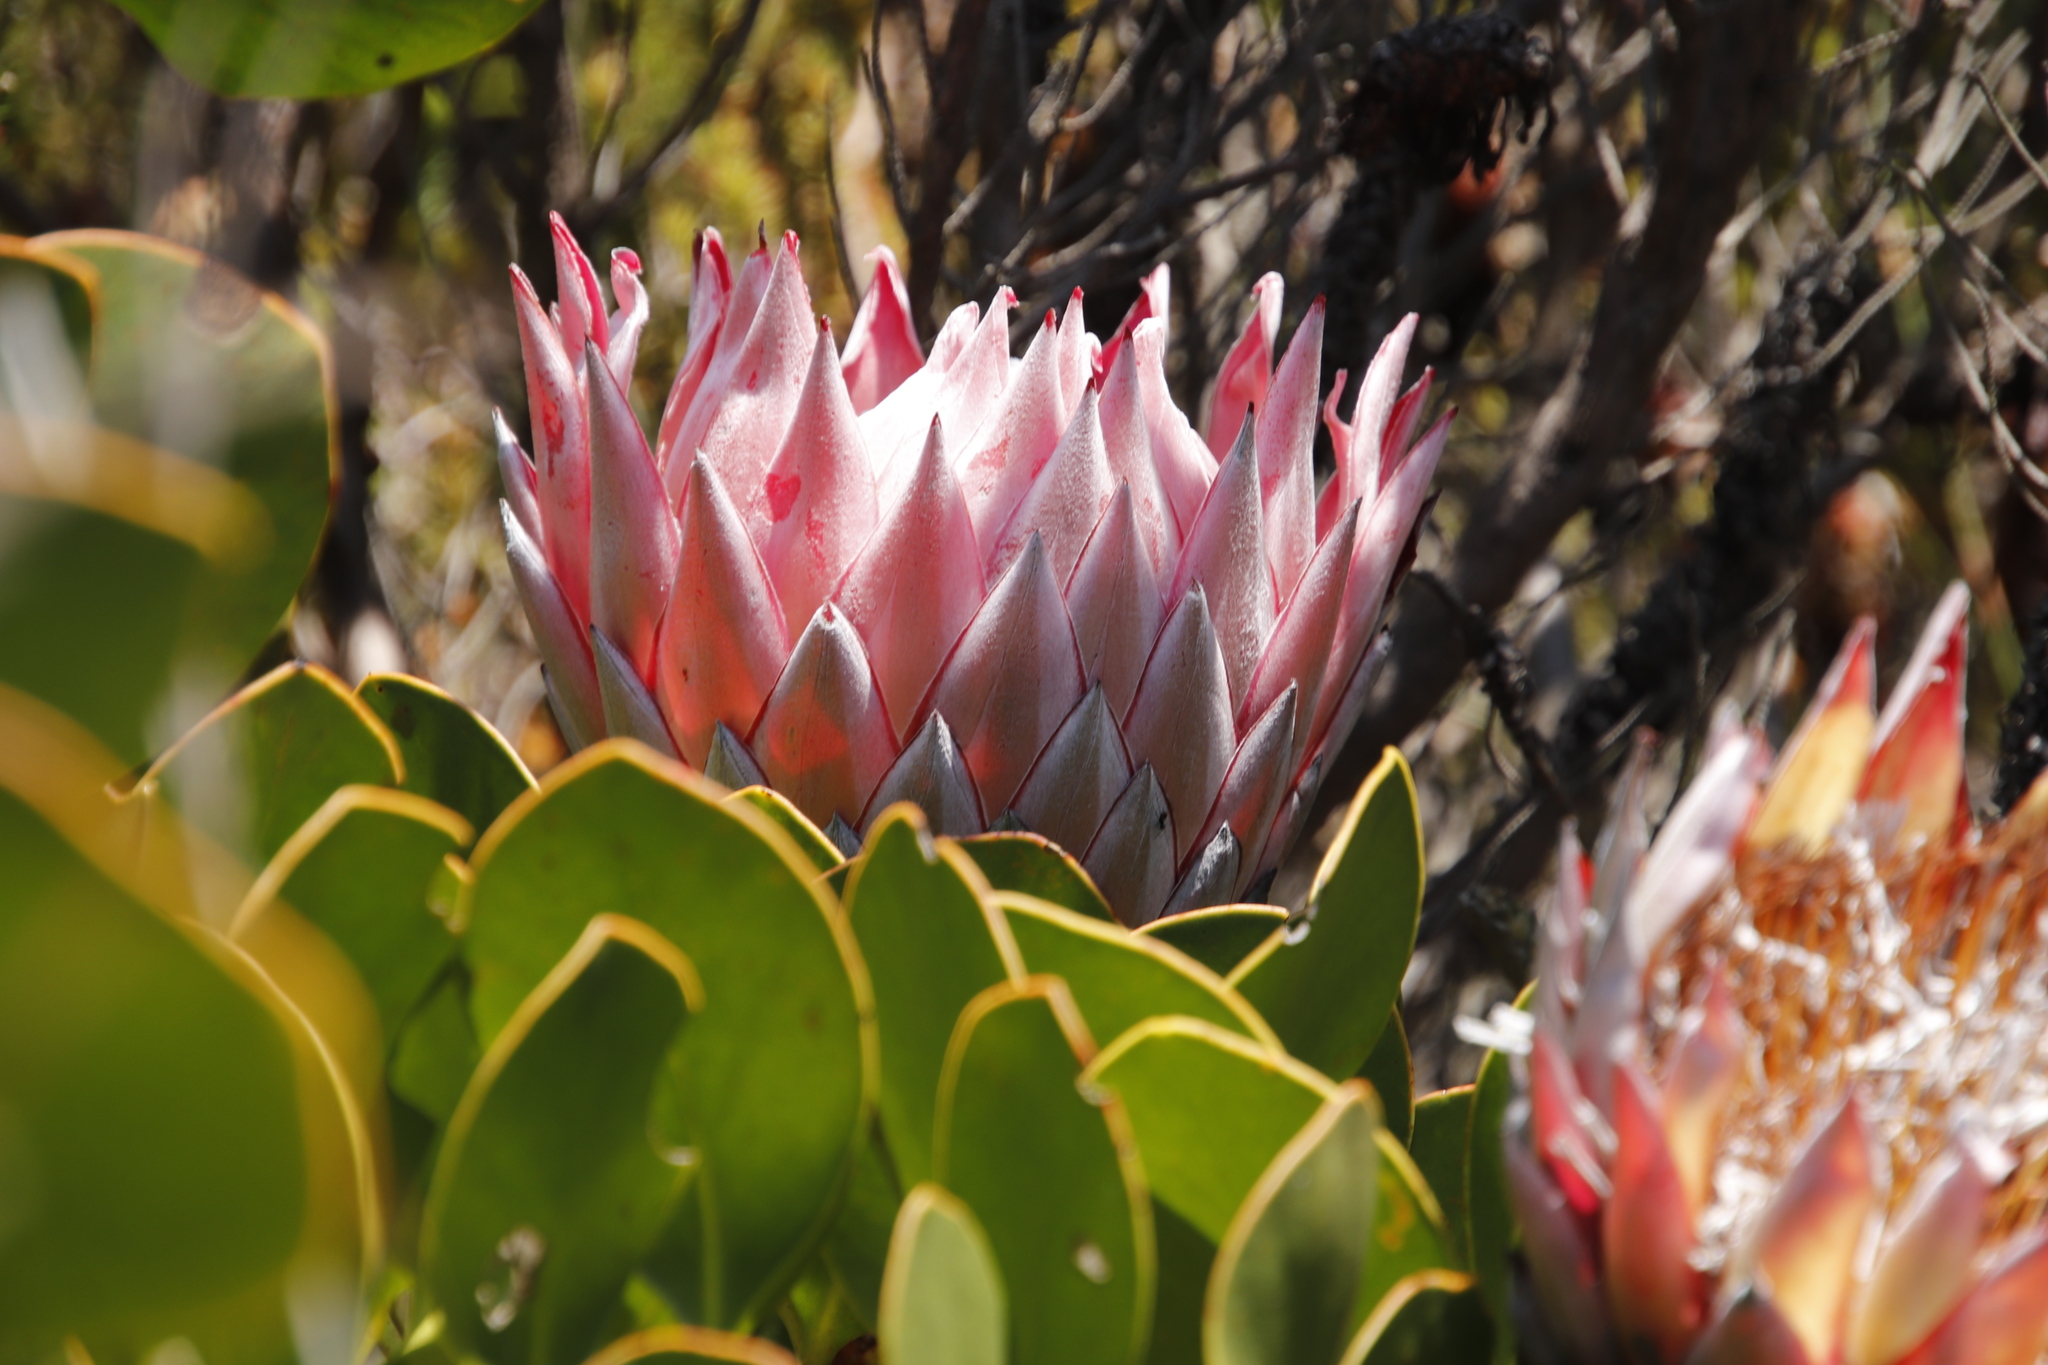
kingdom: Plantae
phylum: Tracheophyta
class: Magnoliopsida
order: Proteales
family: Proteaceae
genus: Protea
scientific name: Protea cynaroides
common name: King protea
